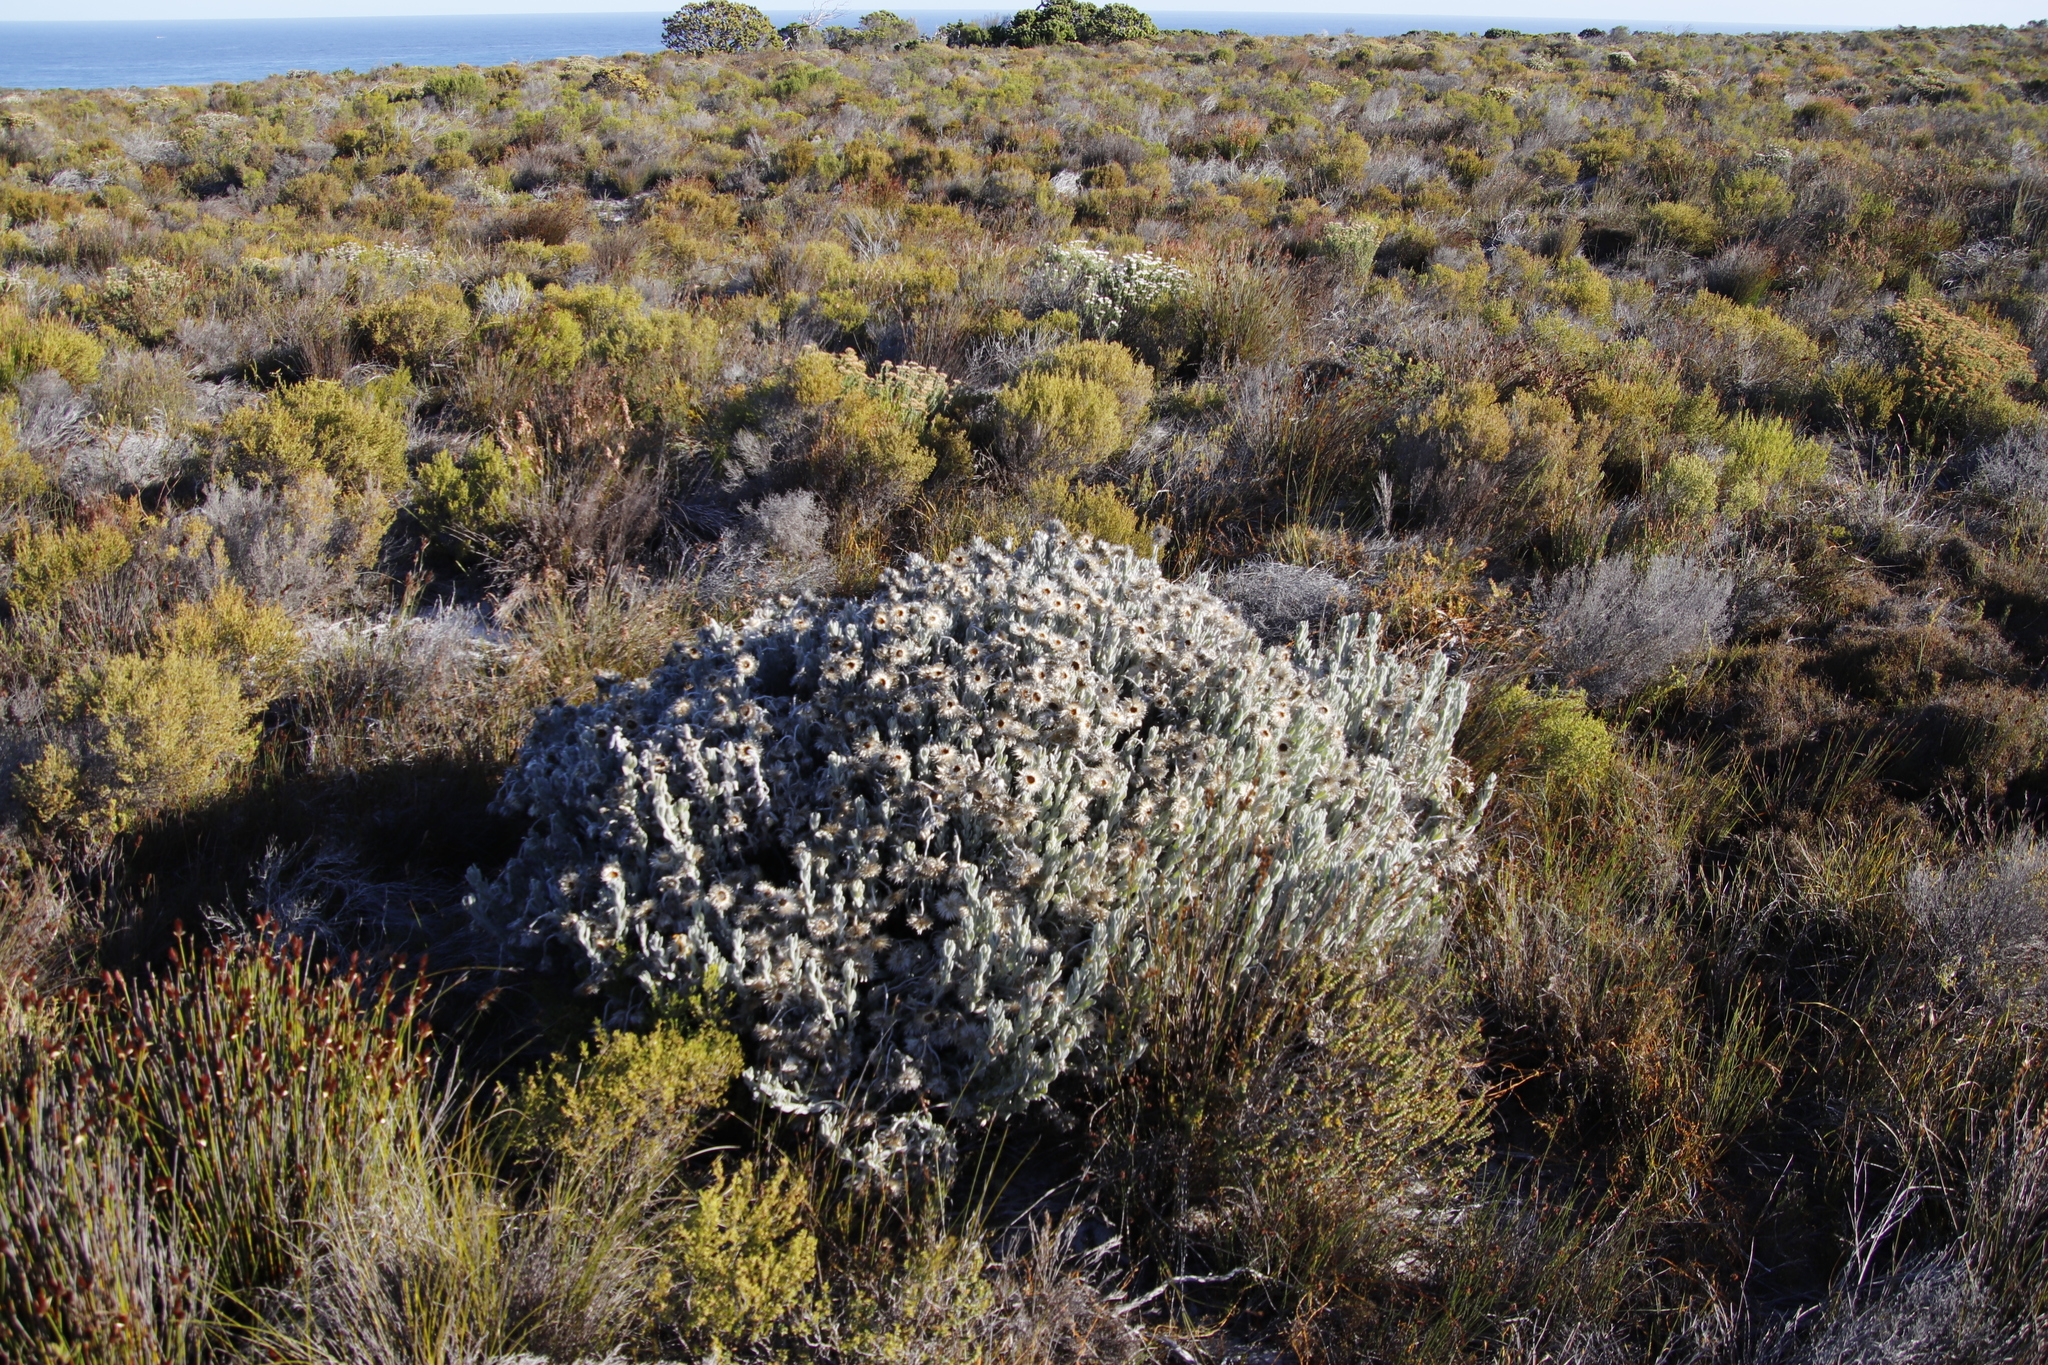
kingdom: Plantae
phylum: Tracheophyta
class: Magnoliopsida
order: Asterales
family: Asteraceae
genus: Syncarpha
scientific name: Syncarpha vestita
